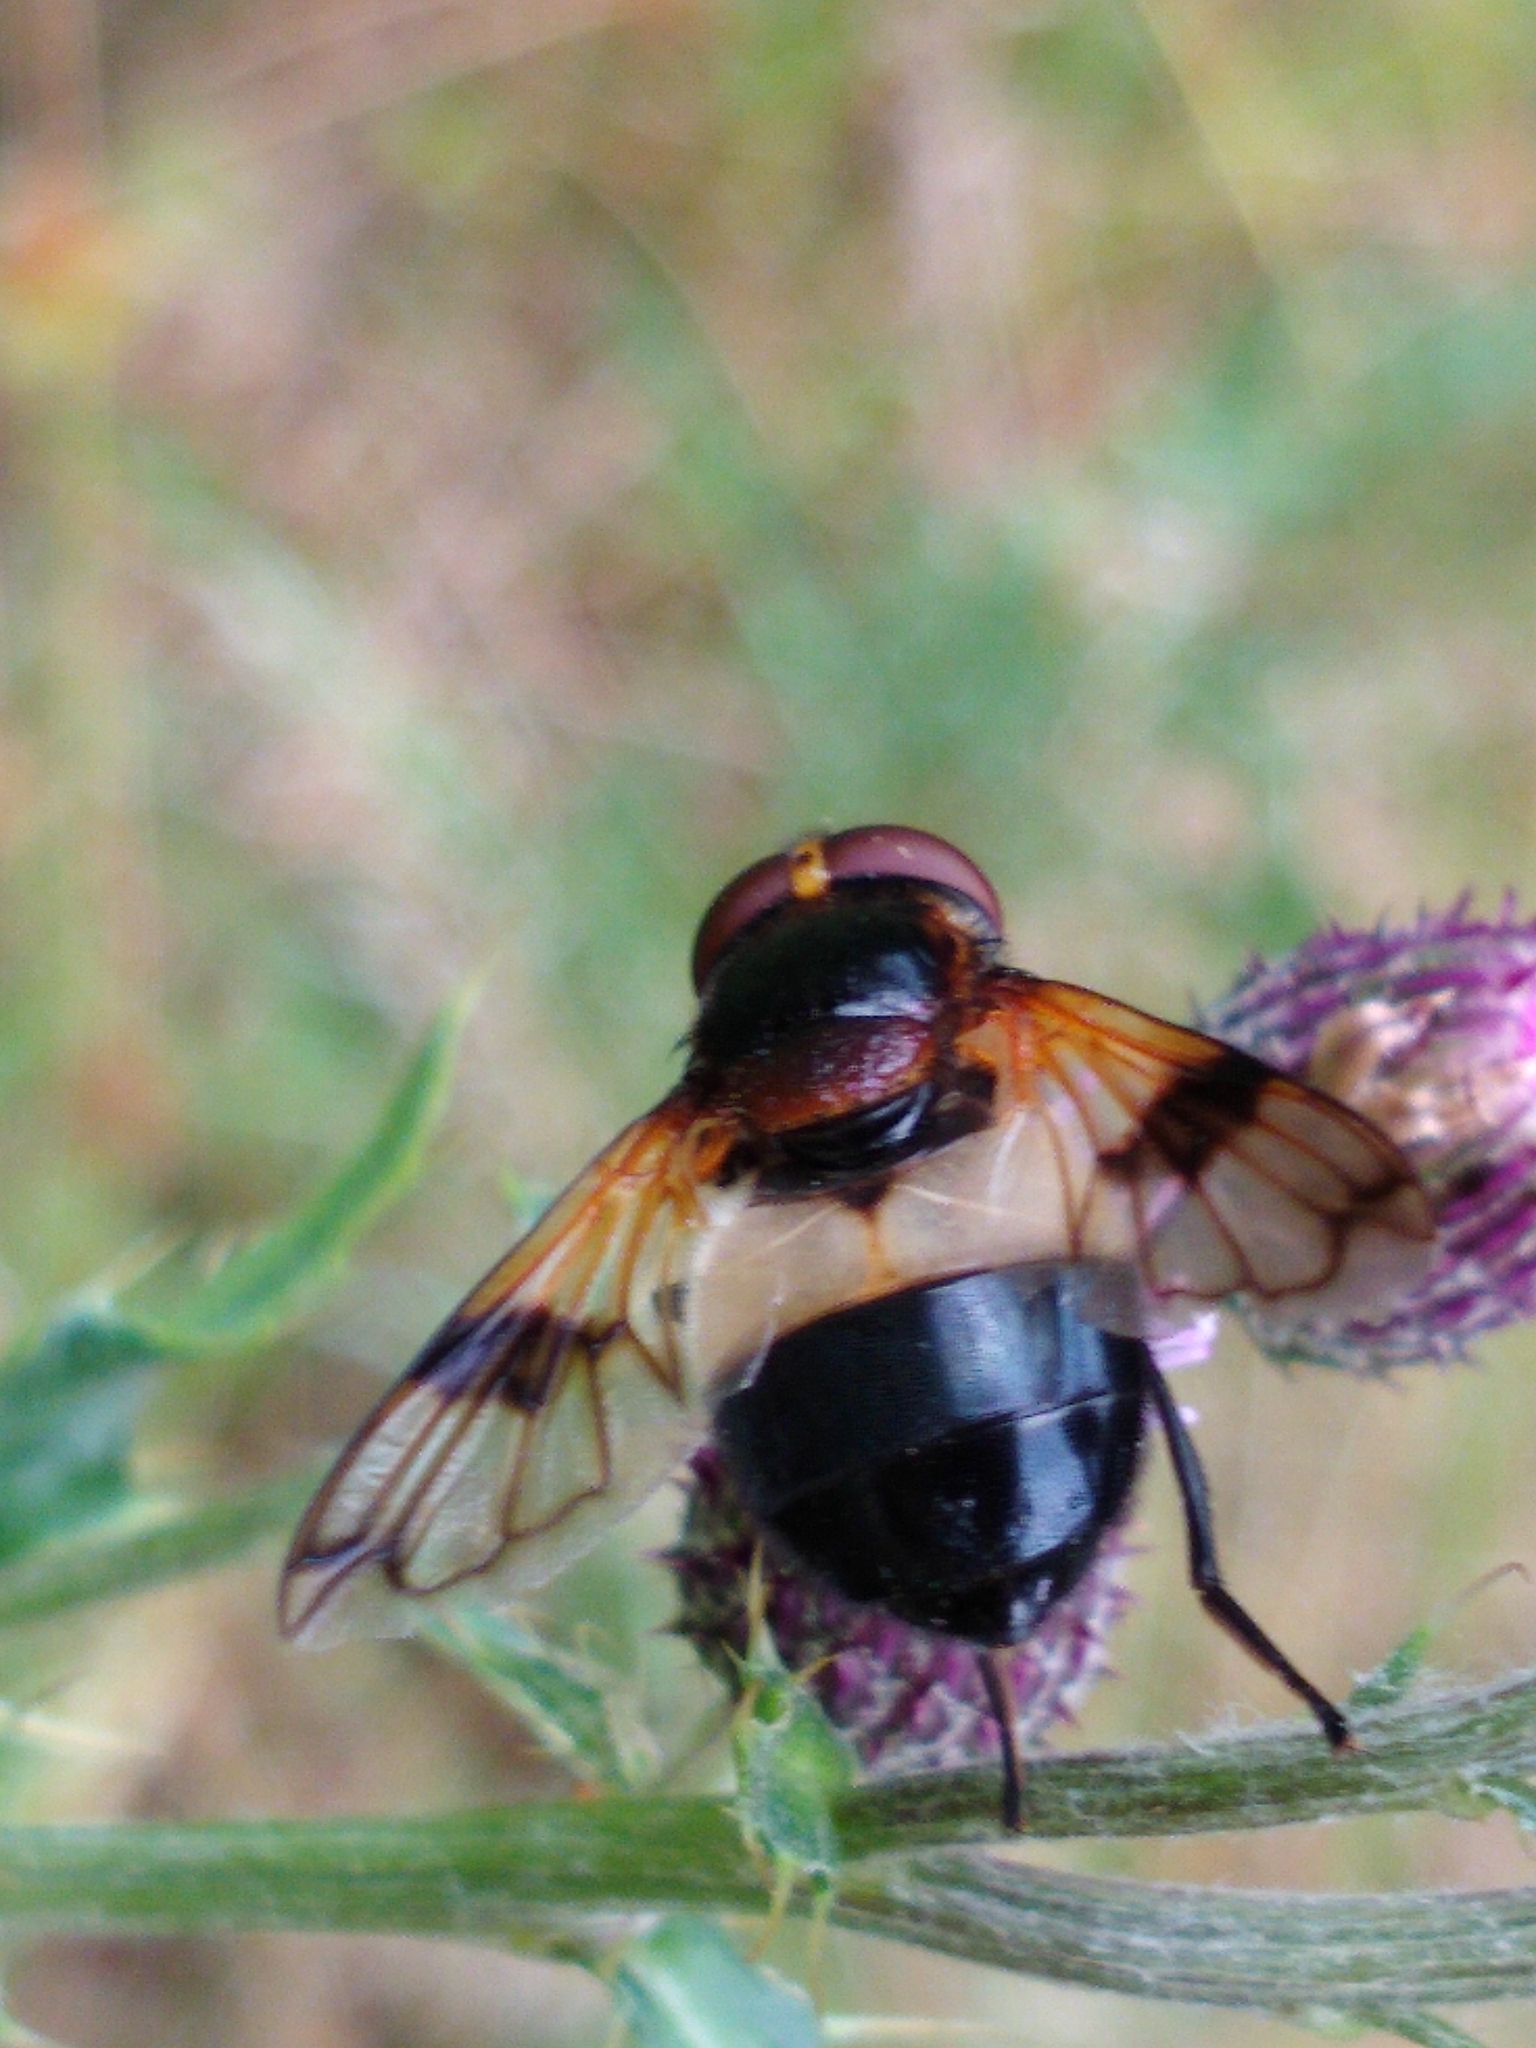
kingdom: Animalia
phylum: Arthropoda
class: Insecta
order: Diptera
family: Syrphidae
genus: Volucella
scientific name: Volucella pellucens
